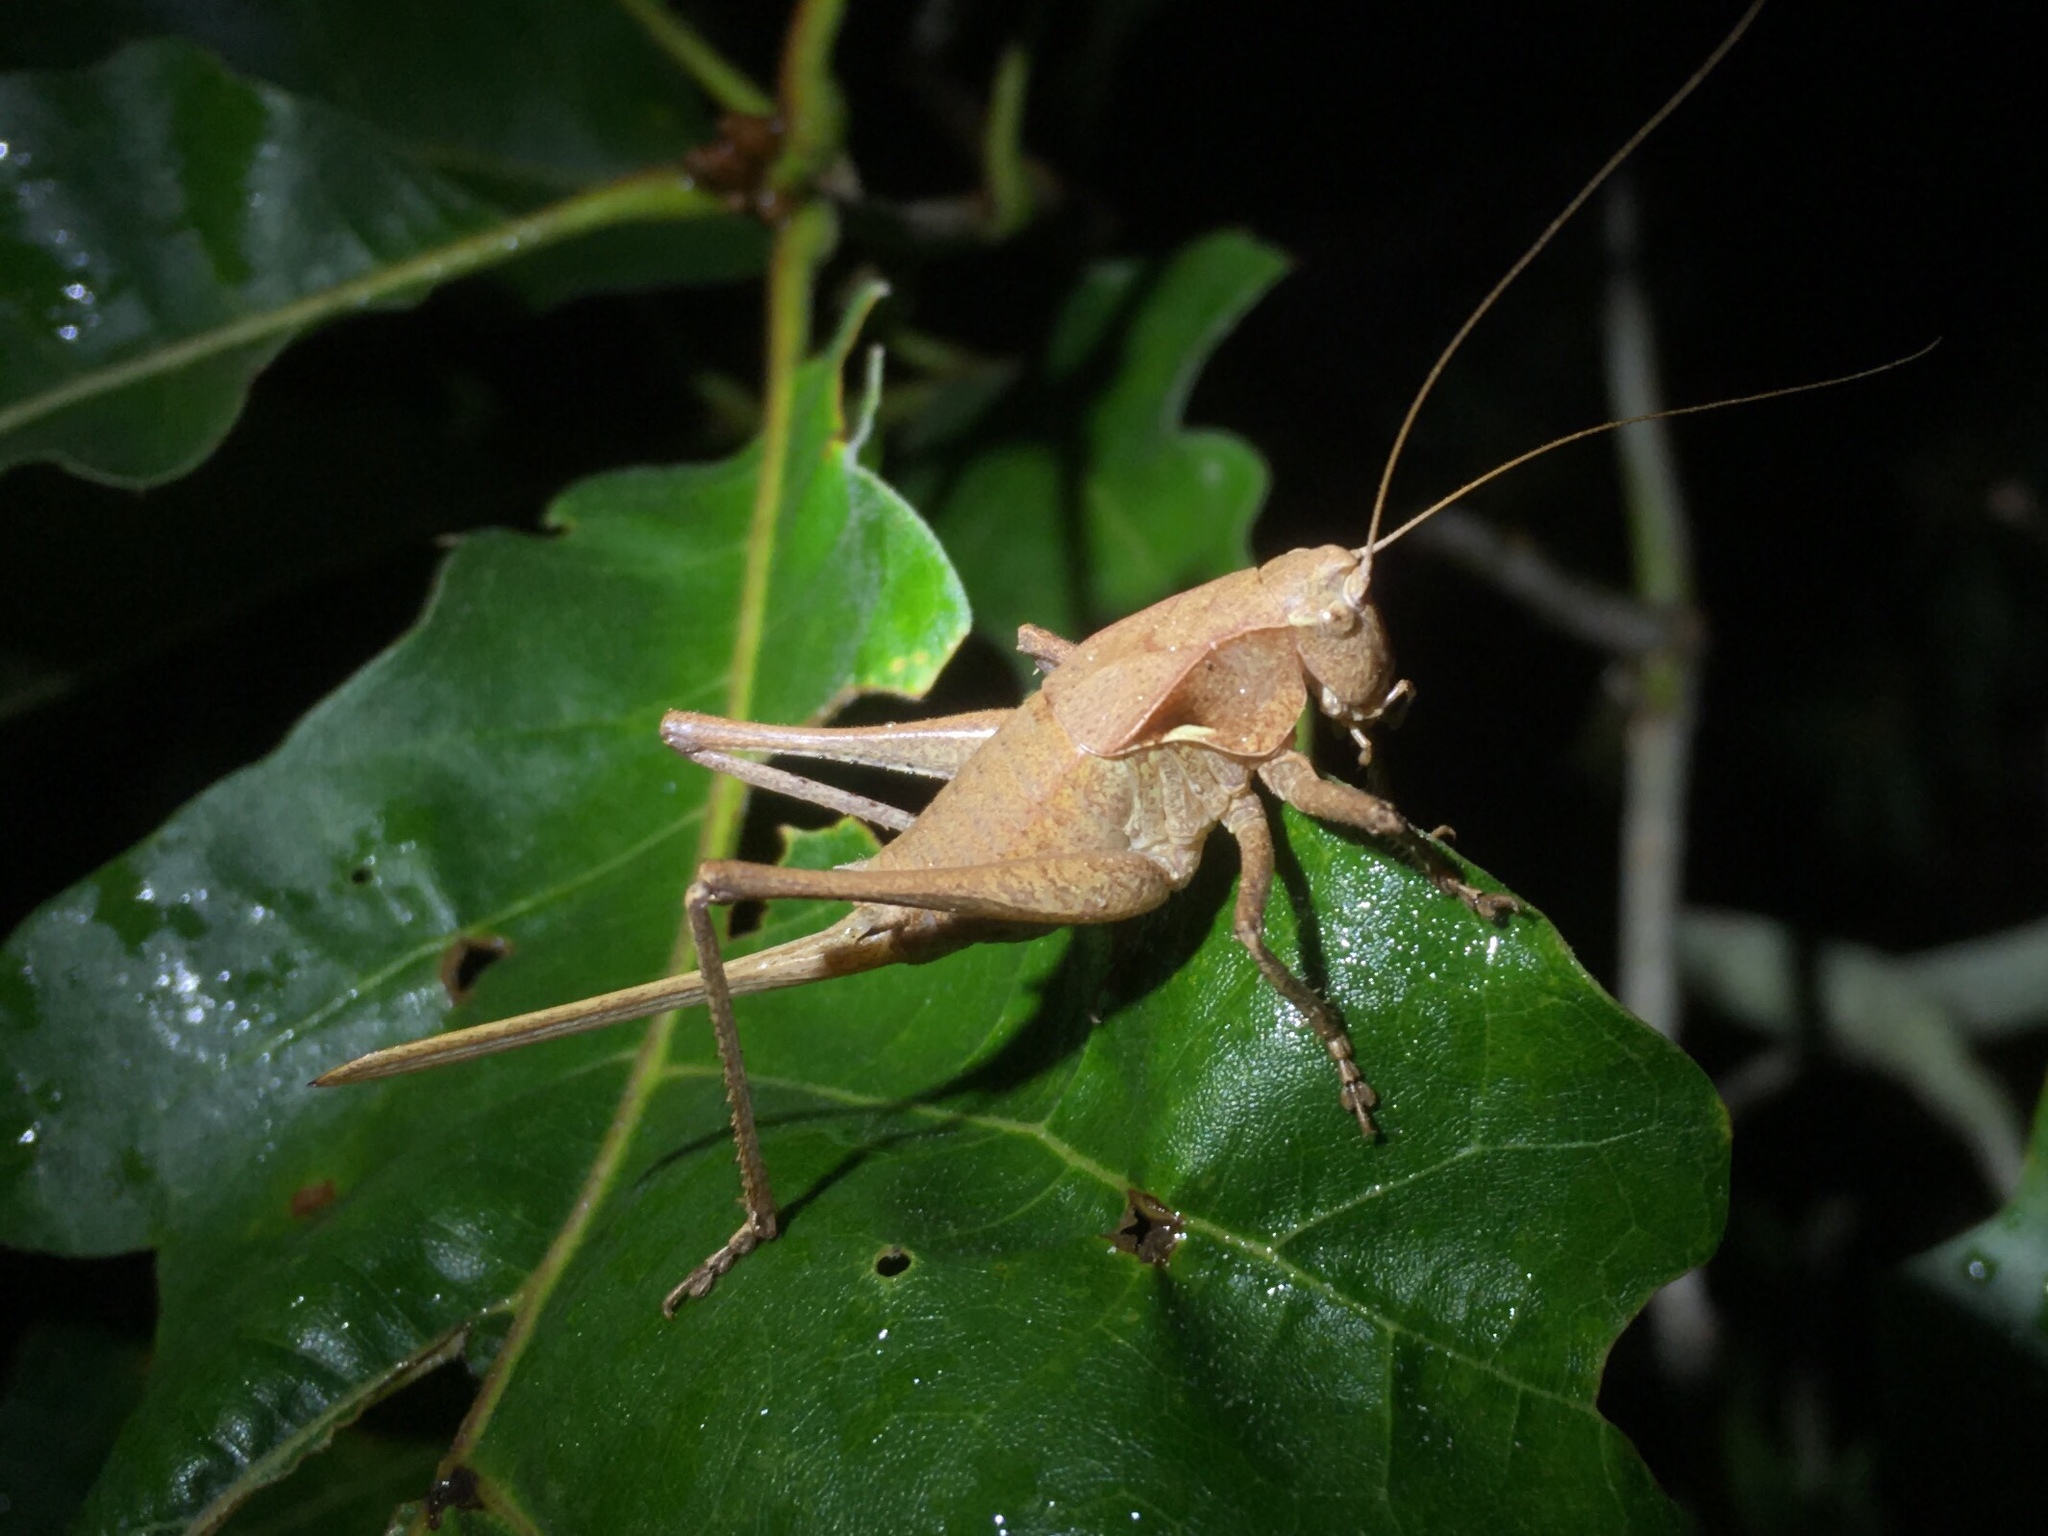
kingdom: Animalia
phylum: Arthropoda
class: Insecta
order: Orthoptera
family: Tettigoniidae
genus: Atlanticus
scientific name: Atlanticus davisi
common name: Davis's shield-bearer
